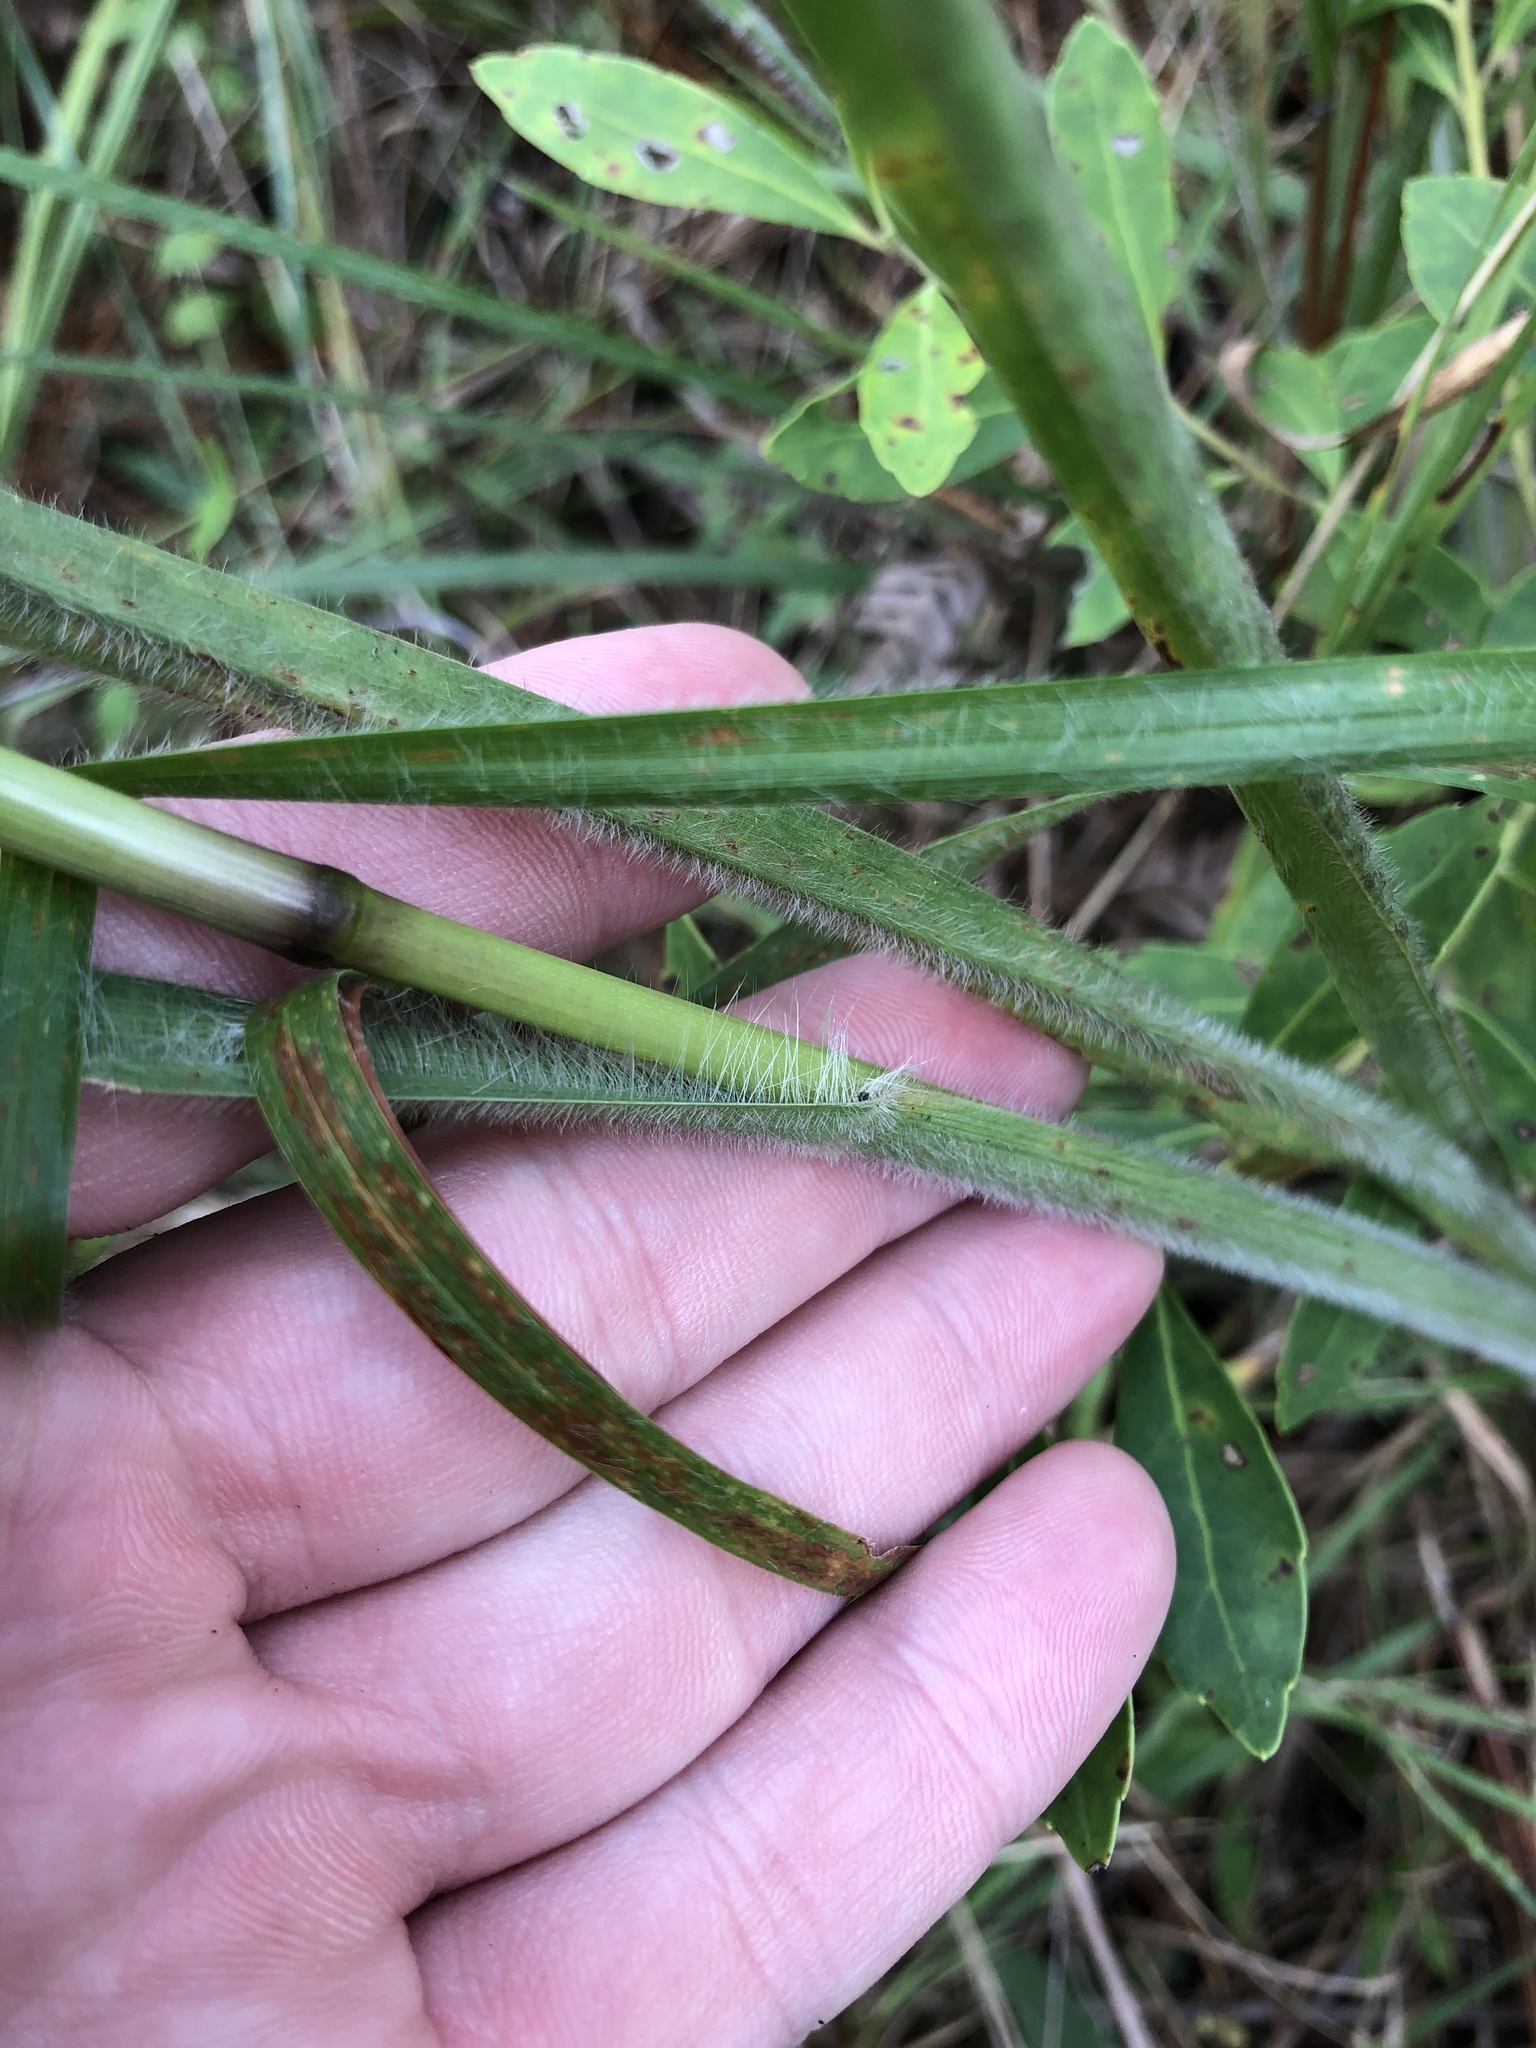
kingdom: Plantae
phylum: Tracheophyta
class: Liliopsida
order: Poales
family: Poaceae
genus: Paspalum
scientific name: Paspalum floridanum
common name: Florida paspalum
